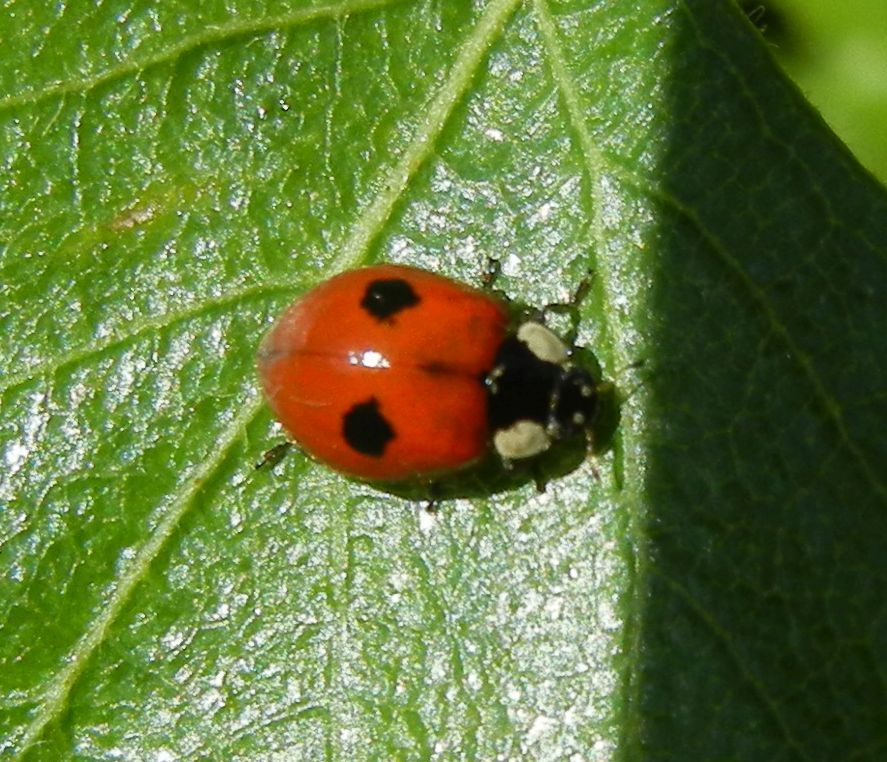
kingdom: Animalia
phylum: Arthropoda
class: Insecta
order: Coleoptera
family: Coccinellidae
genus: Adalia
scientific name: Adalia bipunctata
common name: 2-spot ladybird
